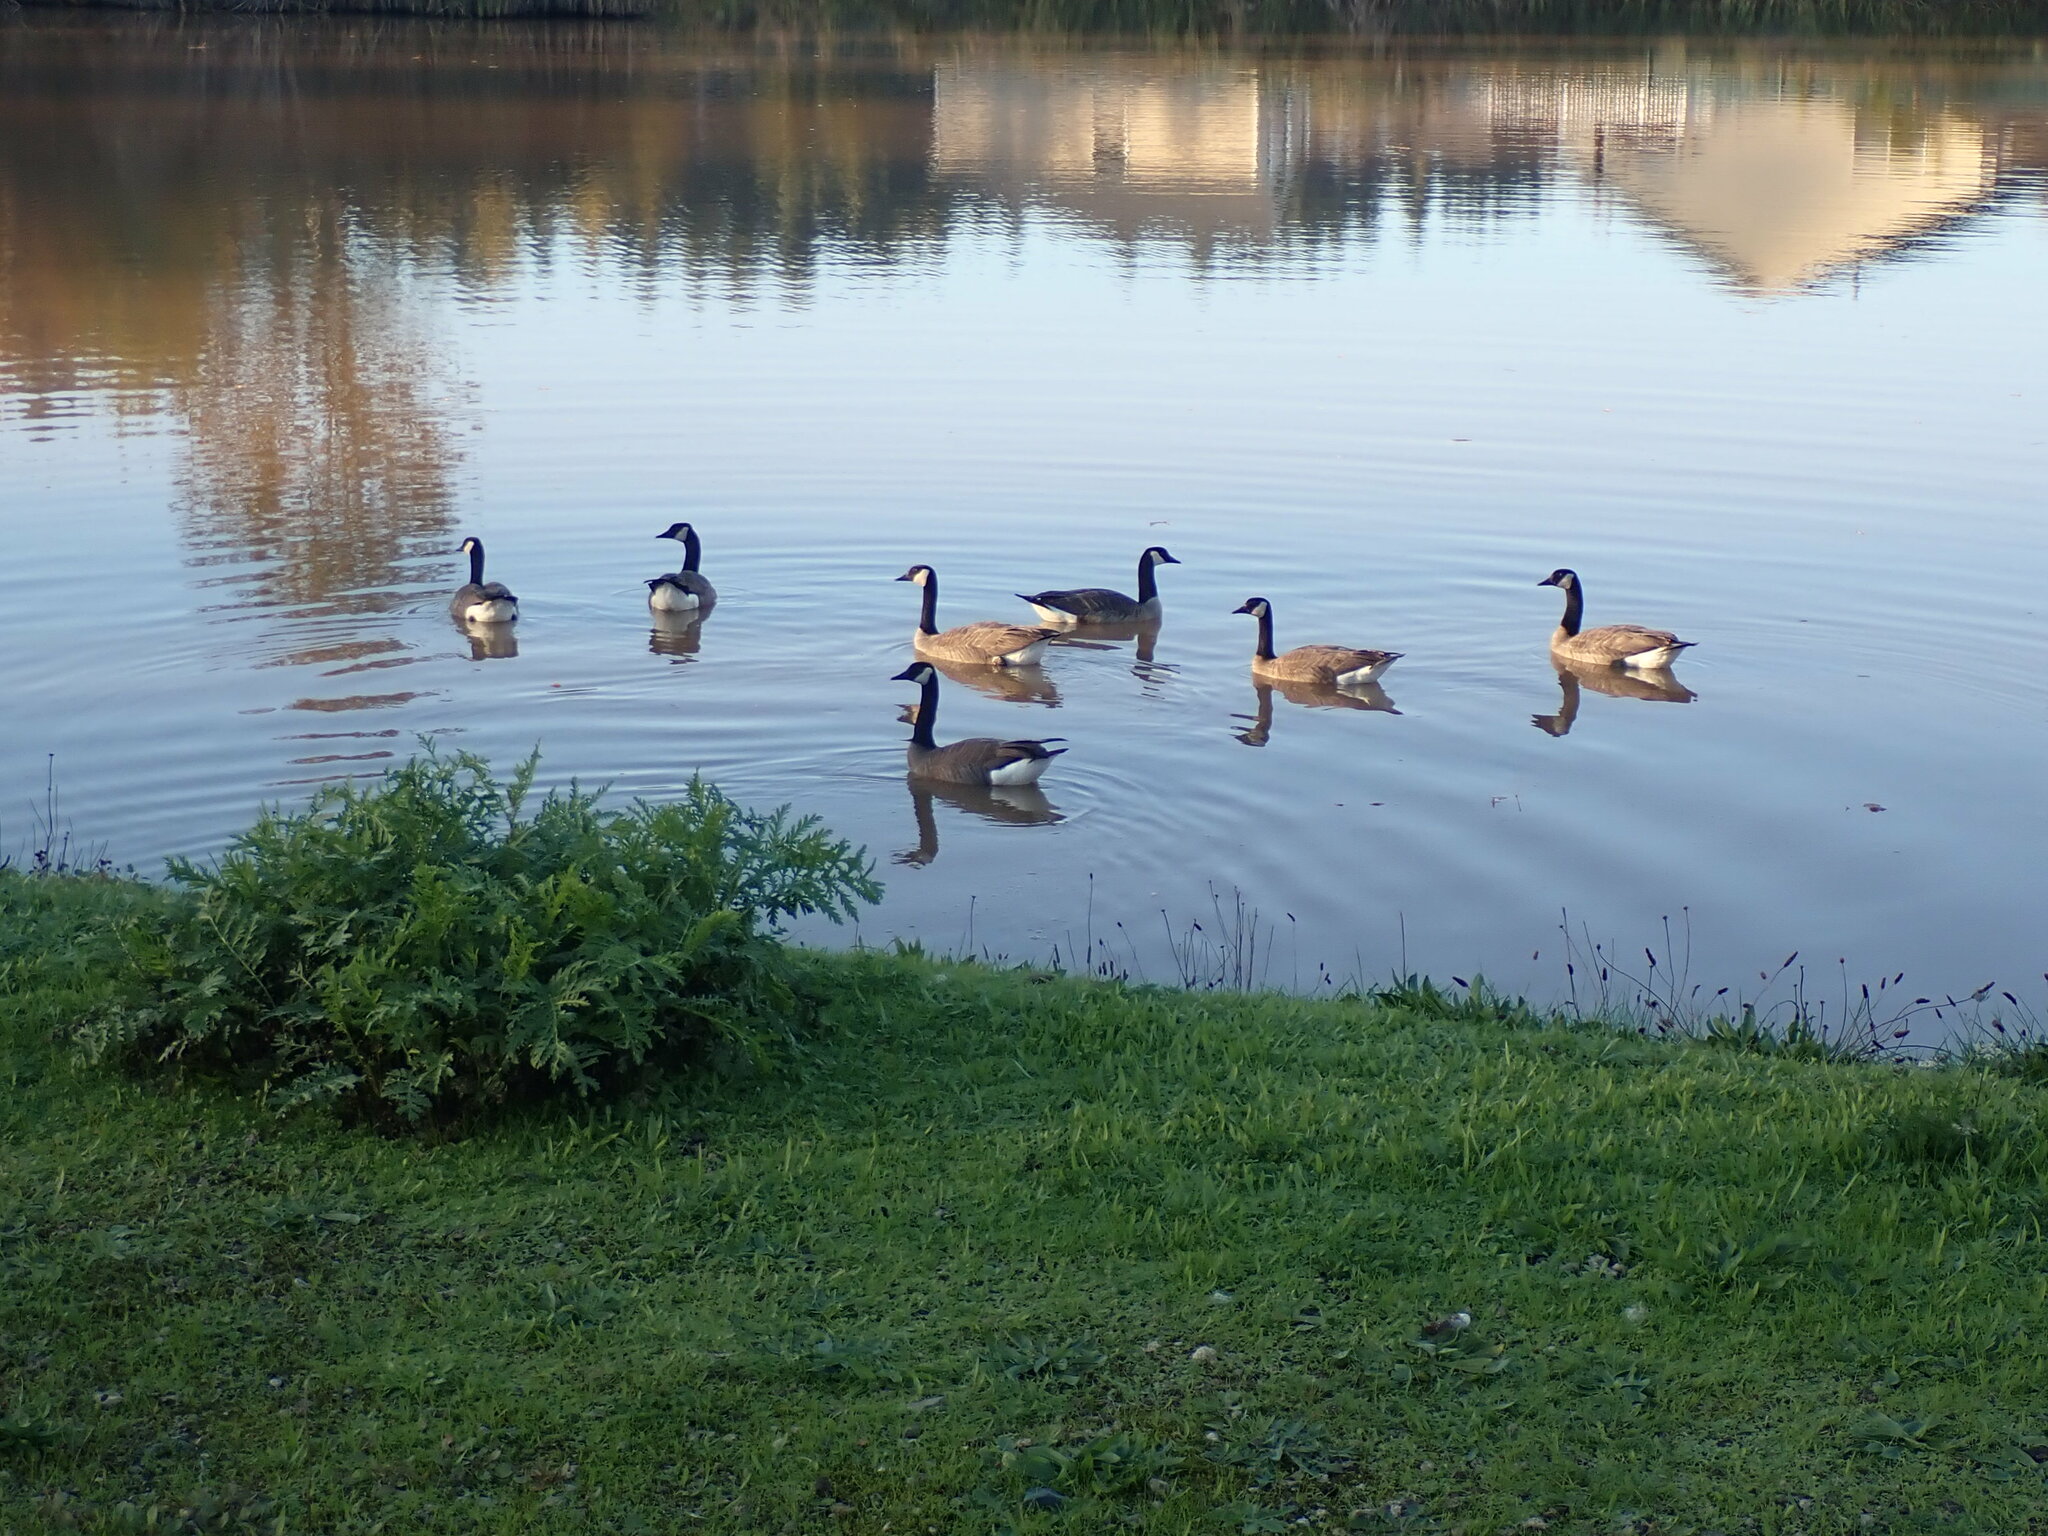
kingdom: Animalia
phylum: Chordata
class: Aves
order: Anseriformes
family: Anatidae
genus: Branta
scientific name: Branta canadensis
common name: Canada goose
